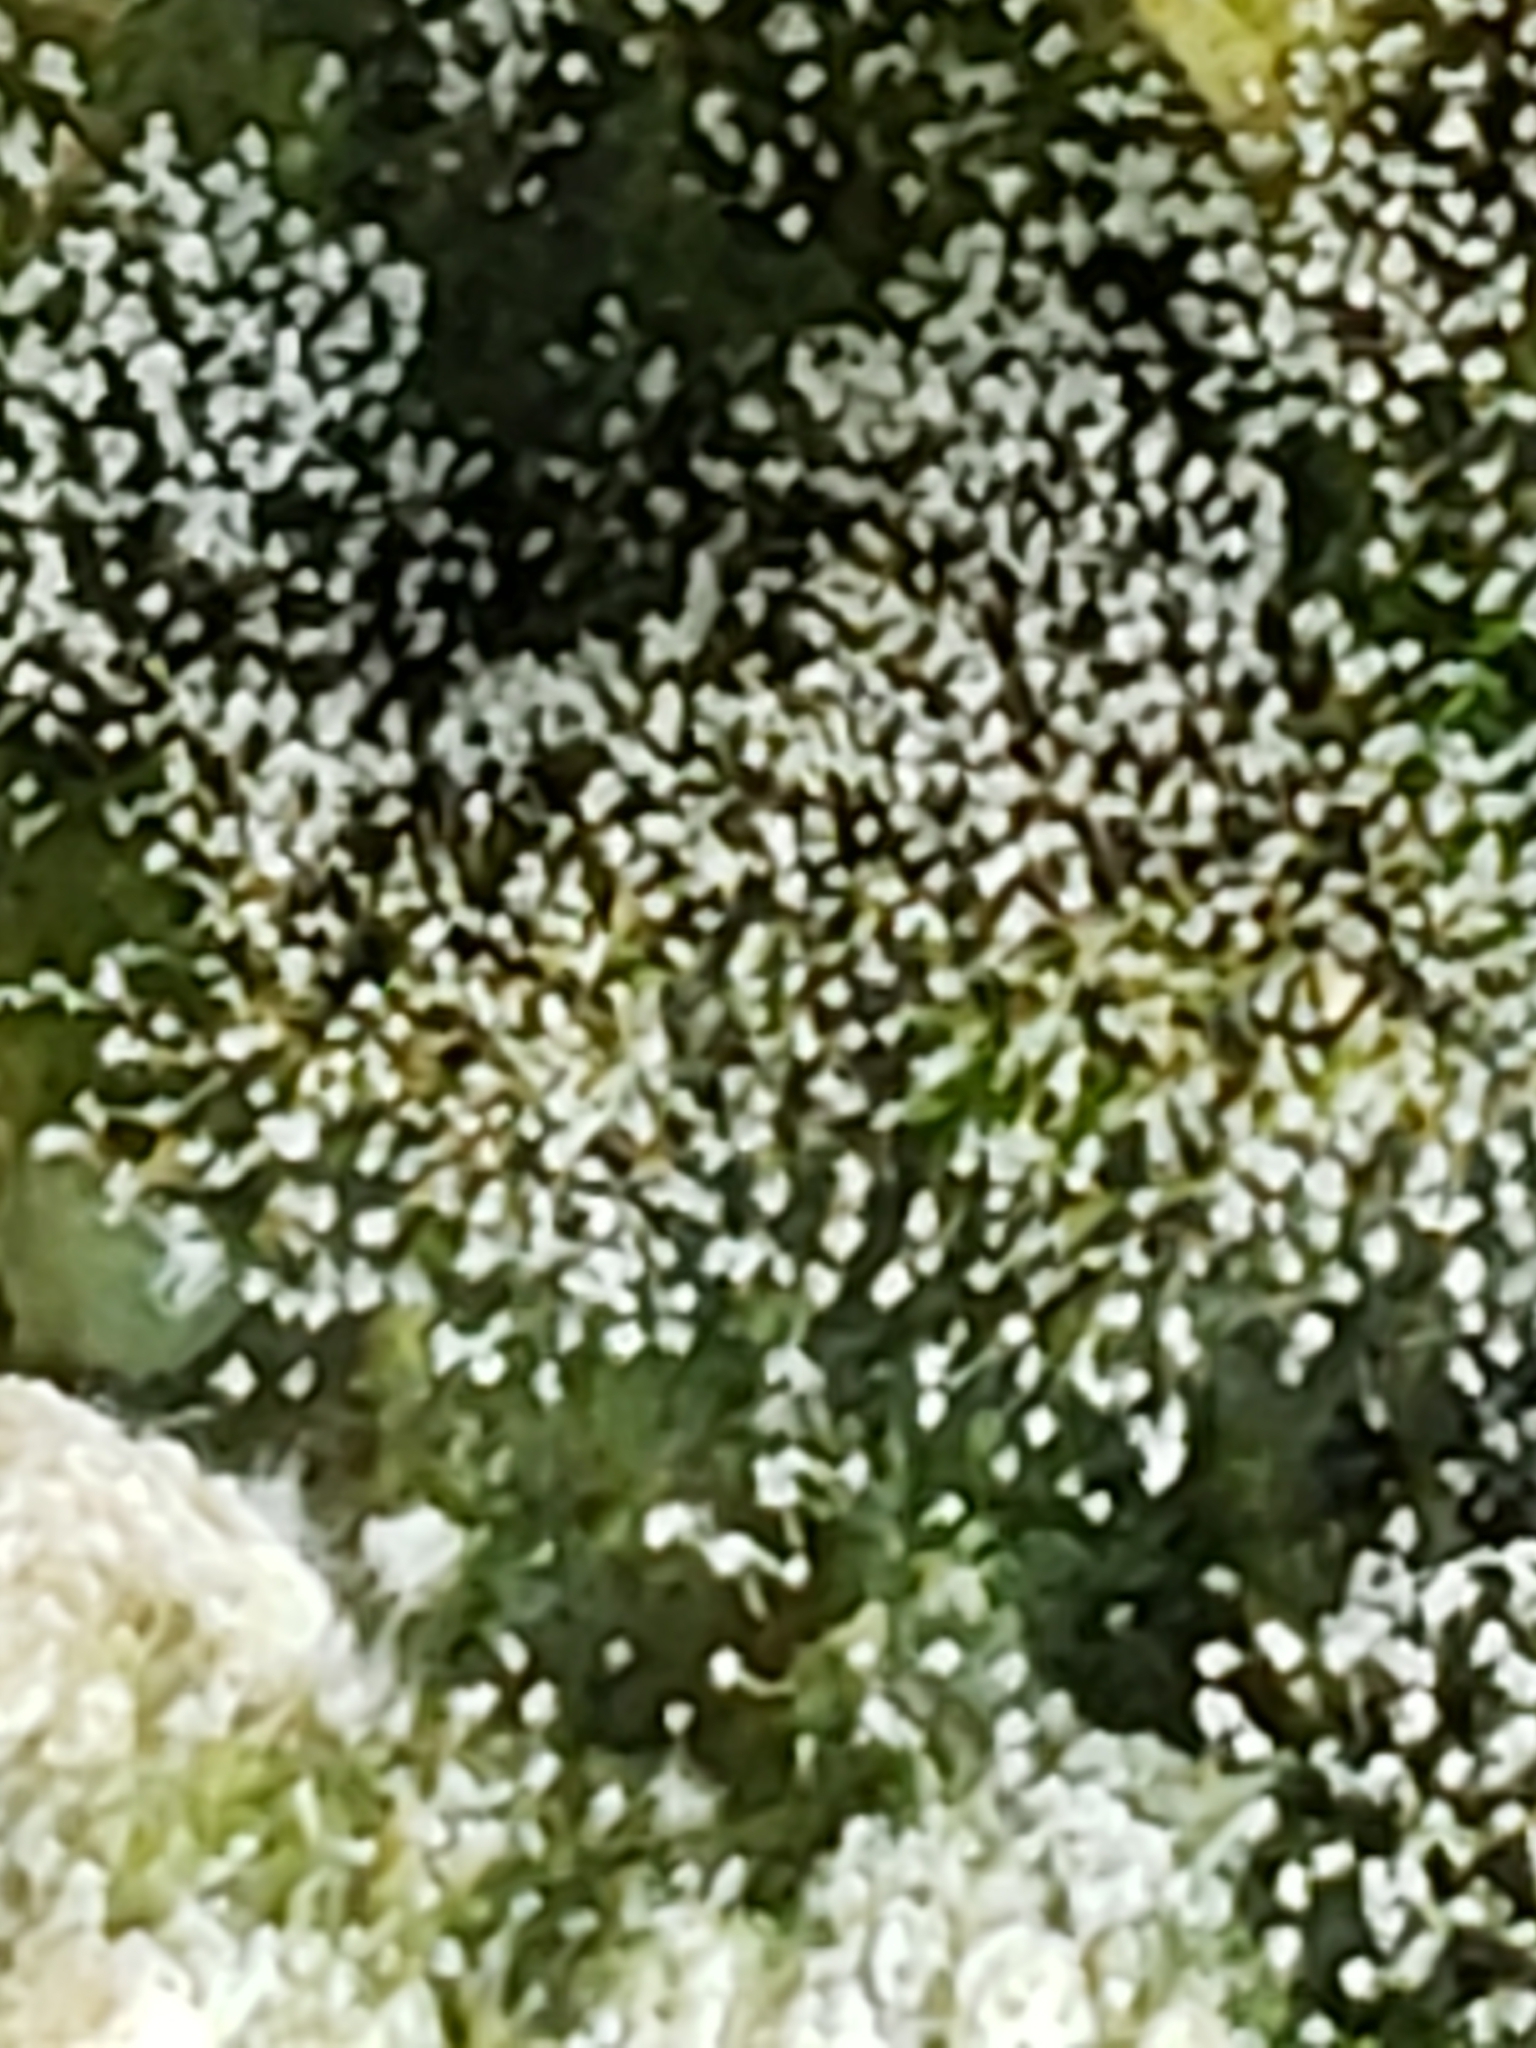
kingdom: Fungi
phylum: Ascomycota
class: Sordariomycetes
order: Hypocreales
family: Nectriaceae
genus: Mariannaea
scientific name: Mariannaea elegans
